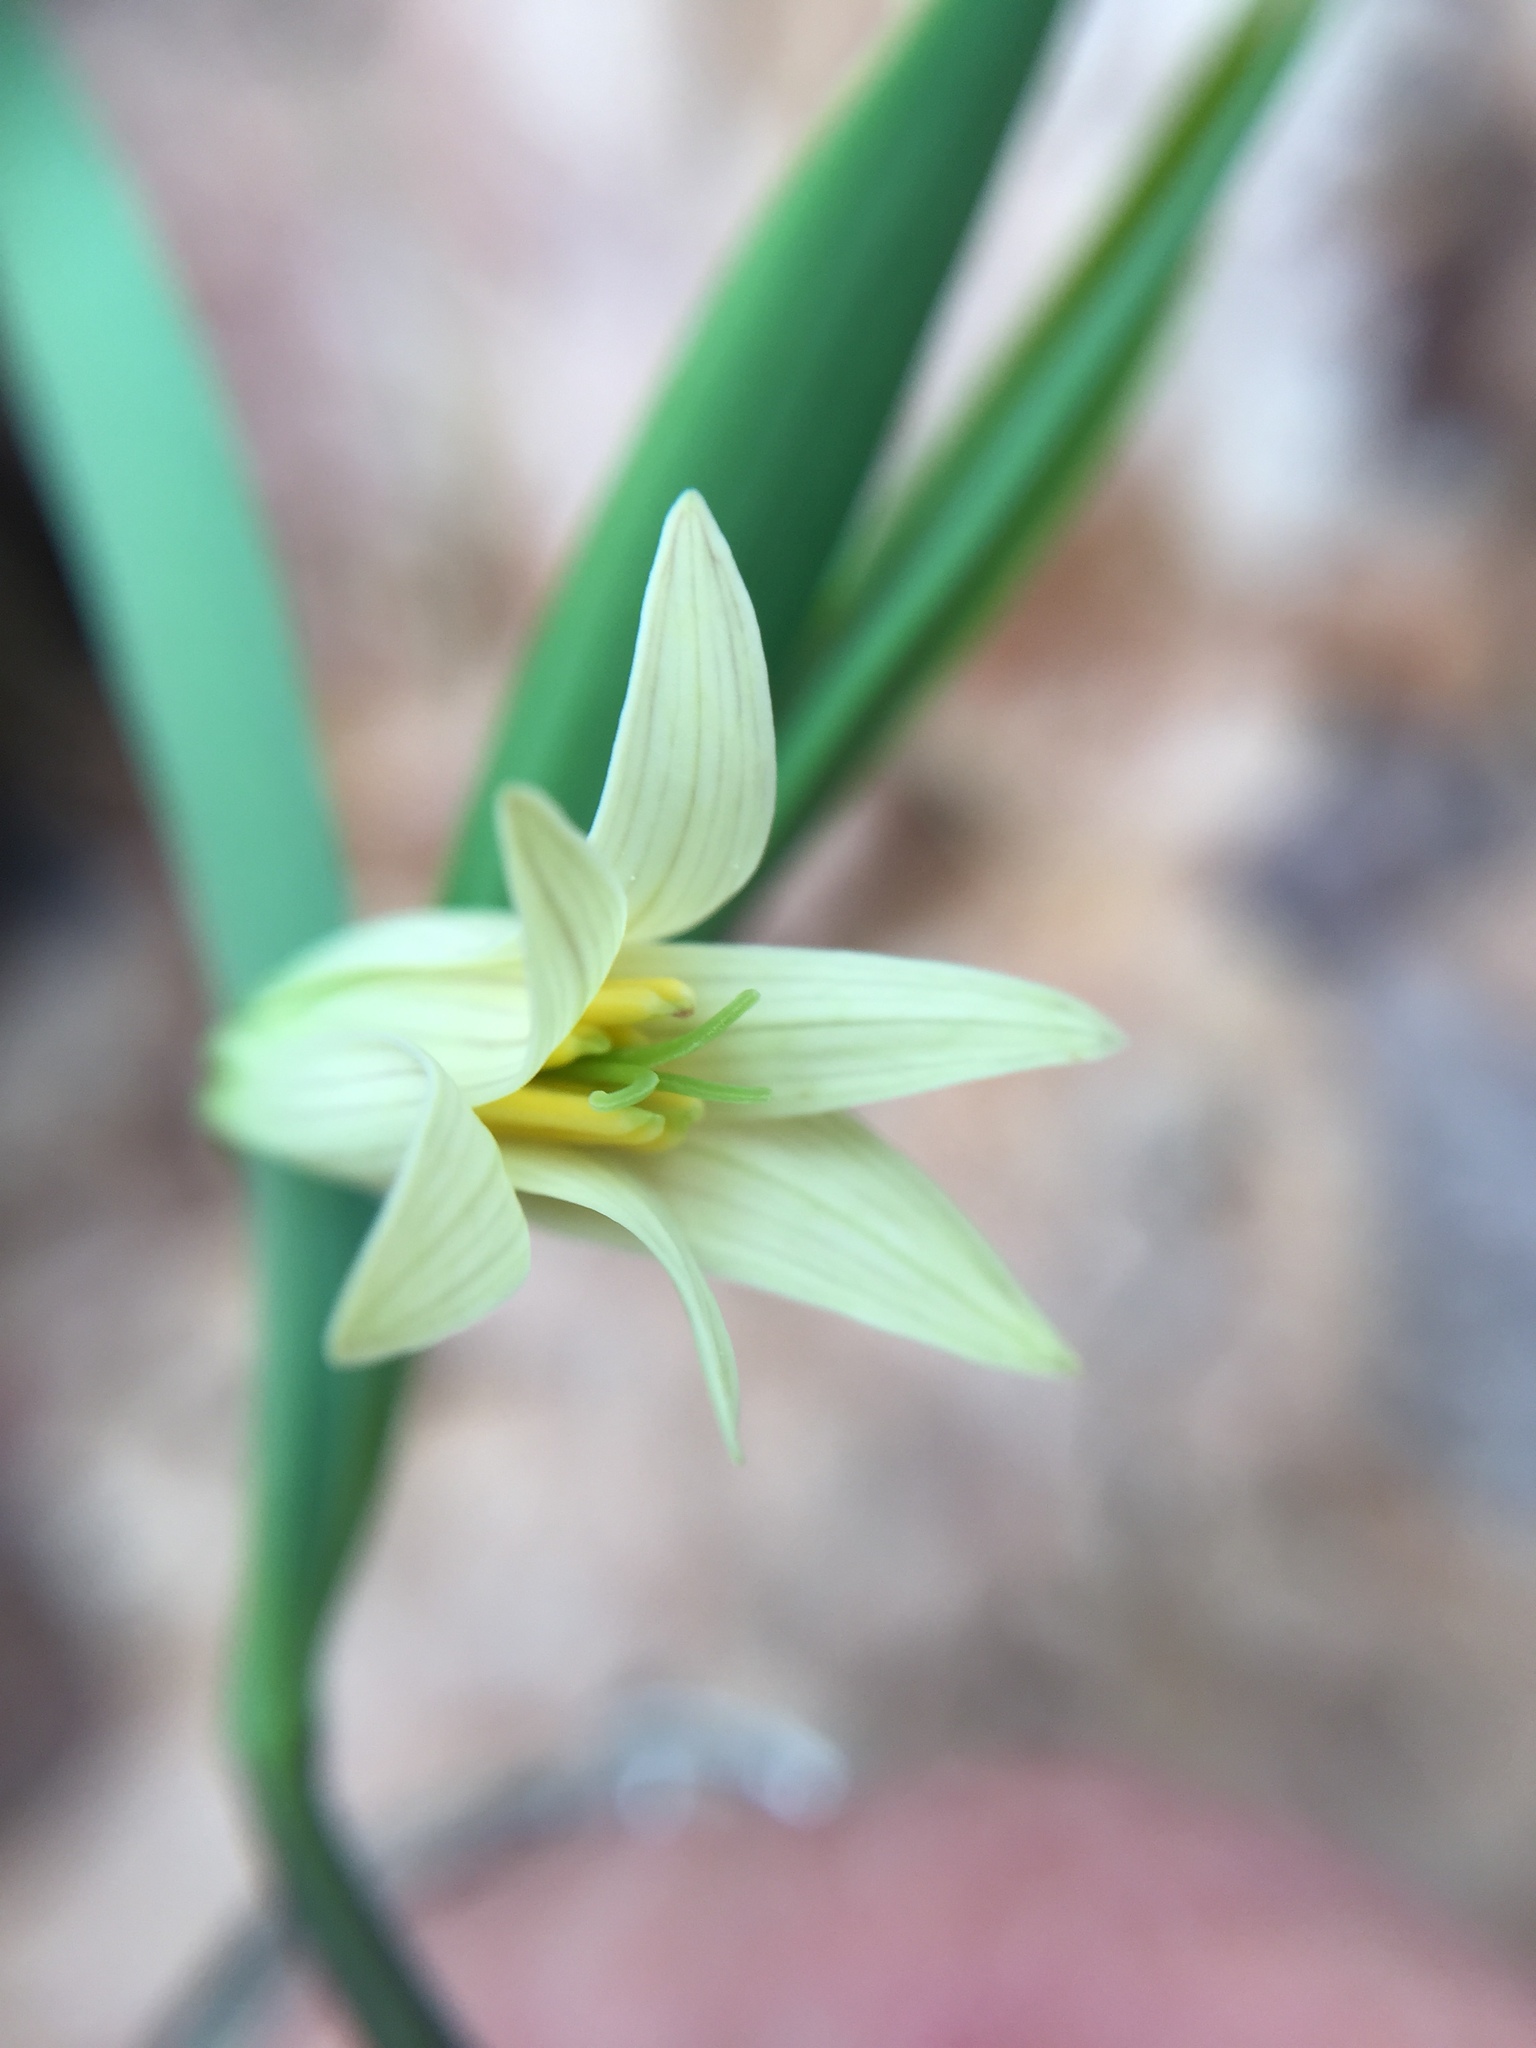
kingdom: Plantae
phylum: Tracheophyta
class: Liliopsida
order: Liliales
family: Colchicaceae
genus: Uvularia
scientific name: Uvularia sessilifolia
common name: Straw-lily
